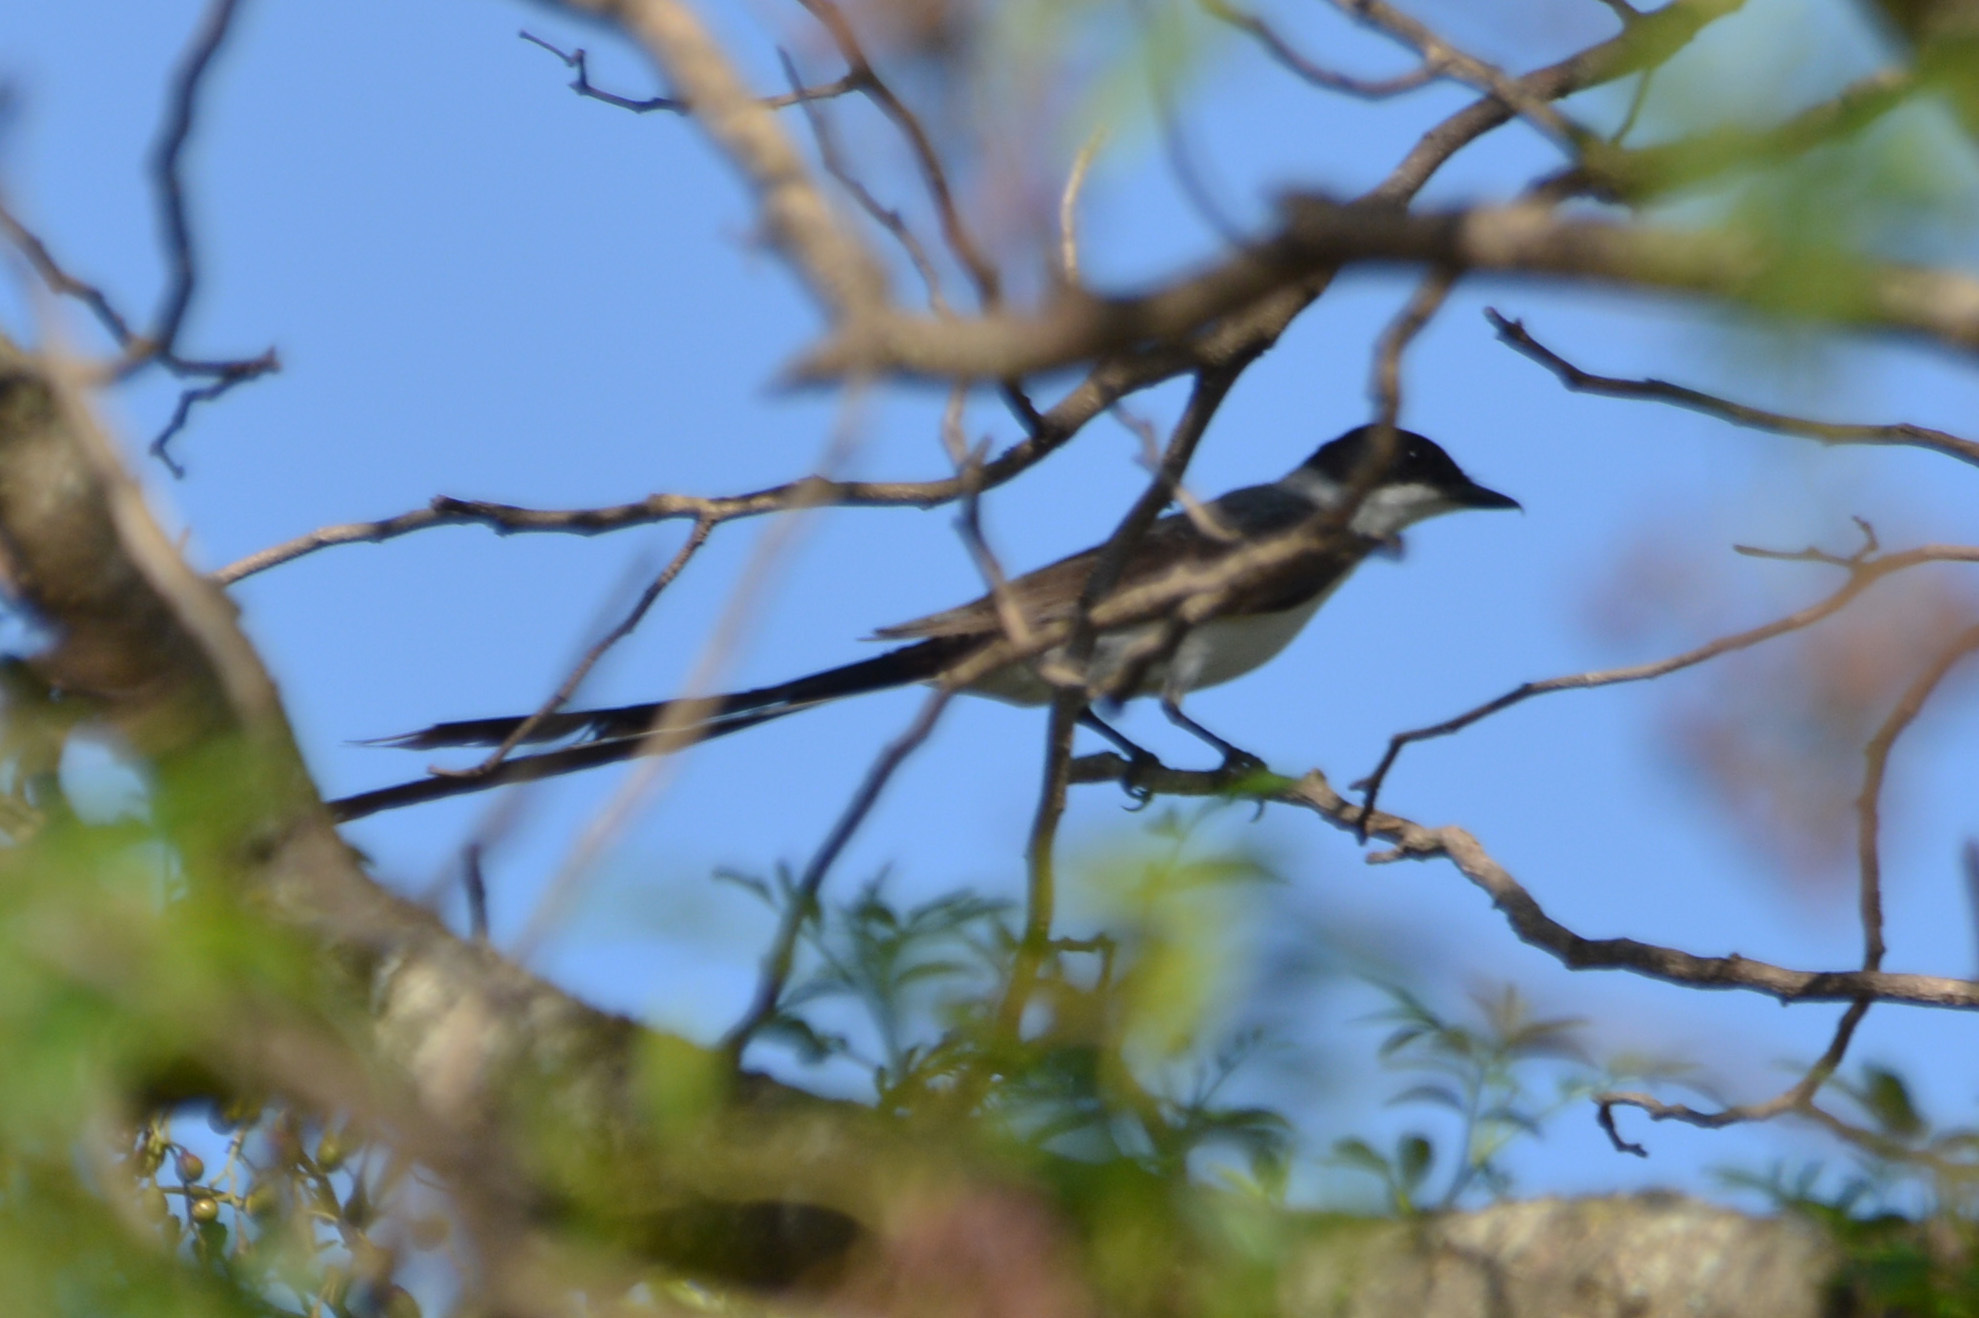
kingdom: Animalia
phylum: Chordata
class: Aves
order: Passeriformes
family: Tyrannidae
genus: Tyrannus
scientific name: Tyrannus savana
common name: Fork-tailed flycatcher
